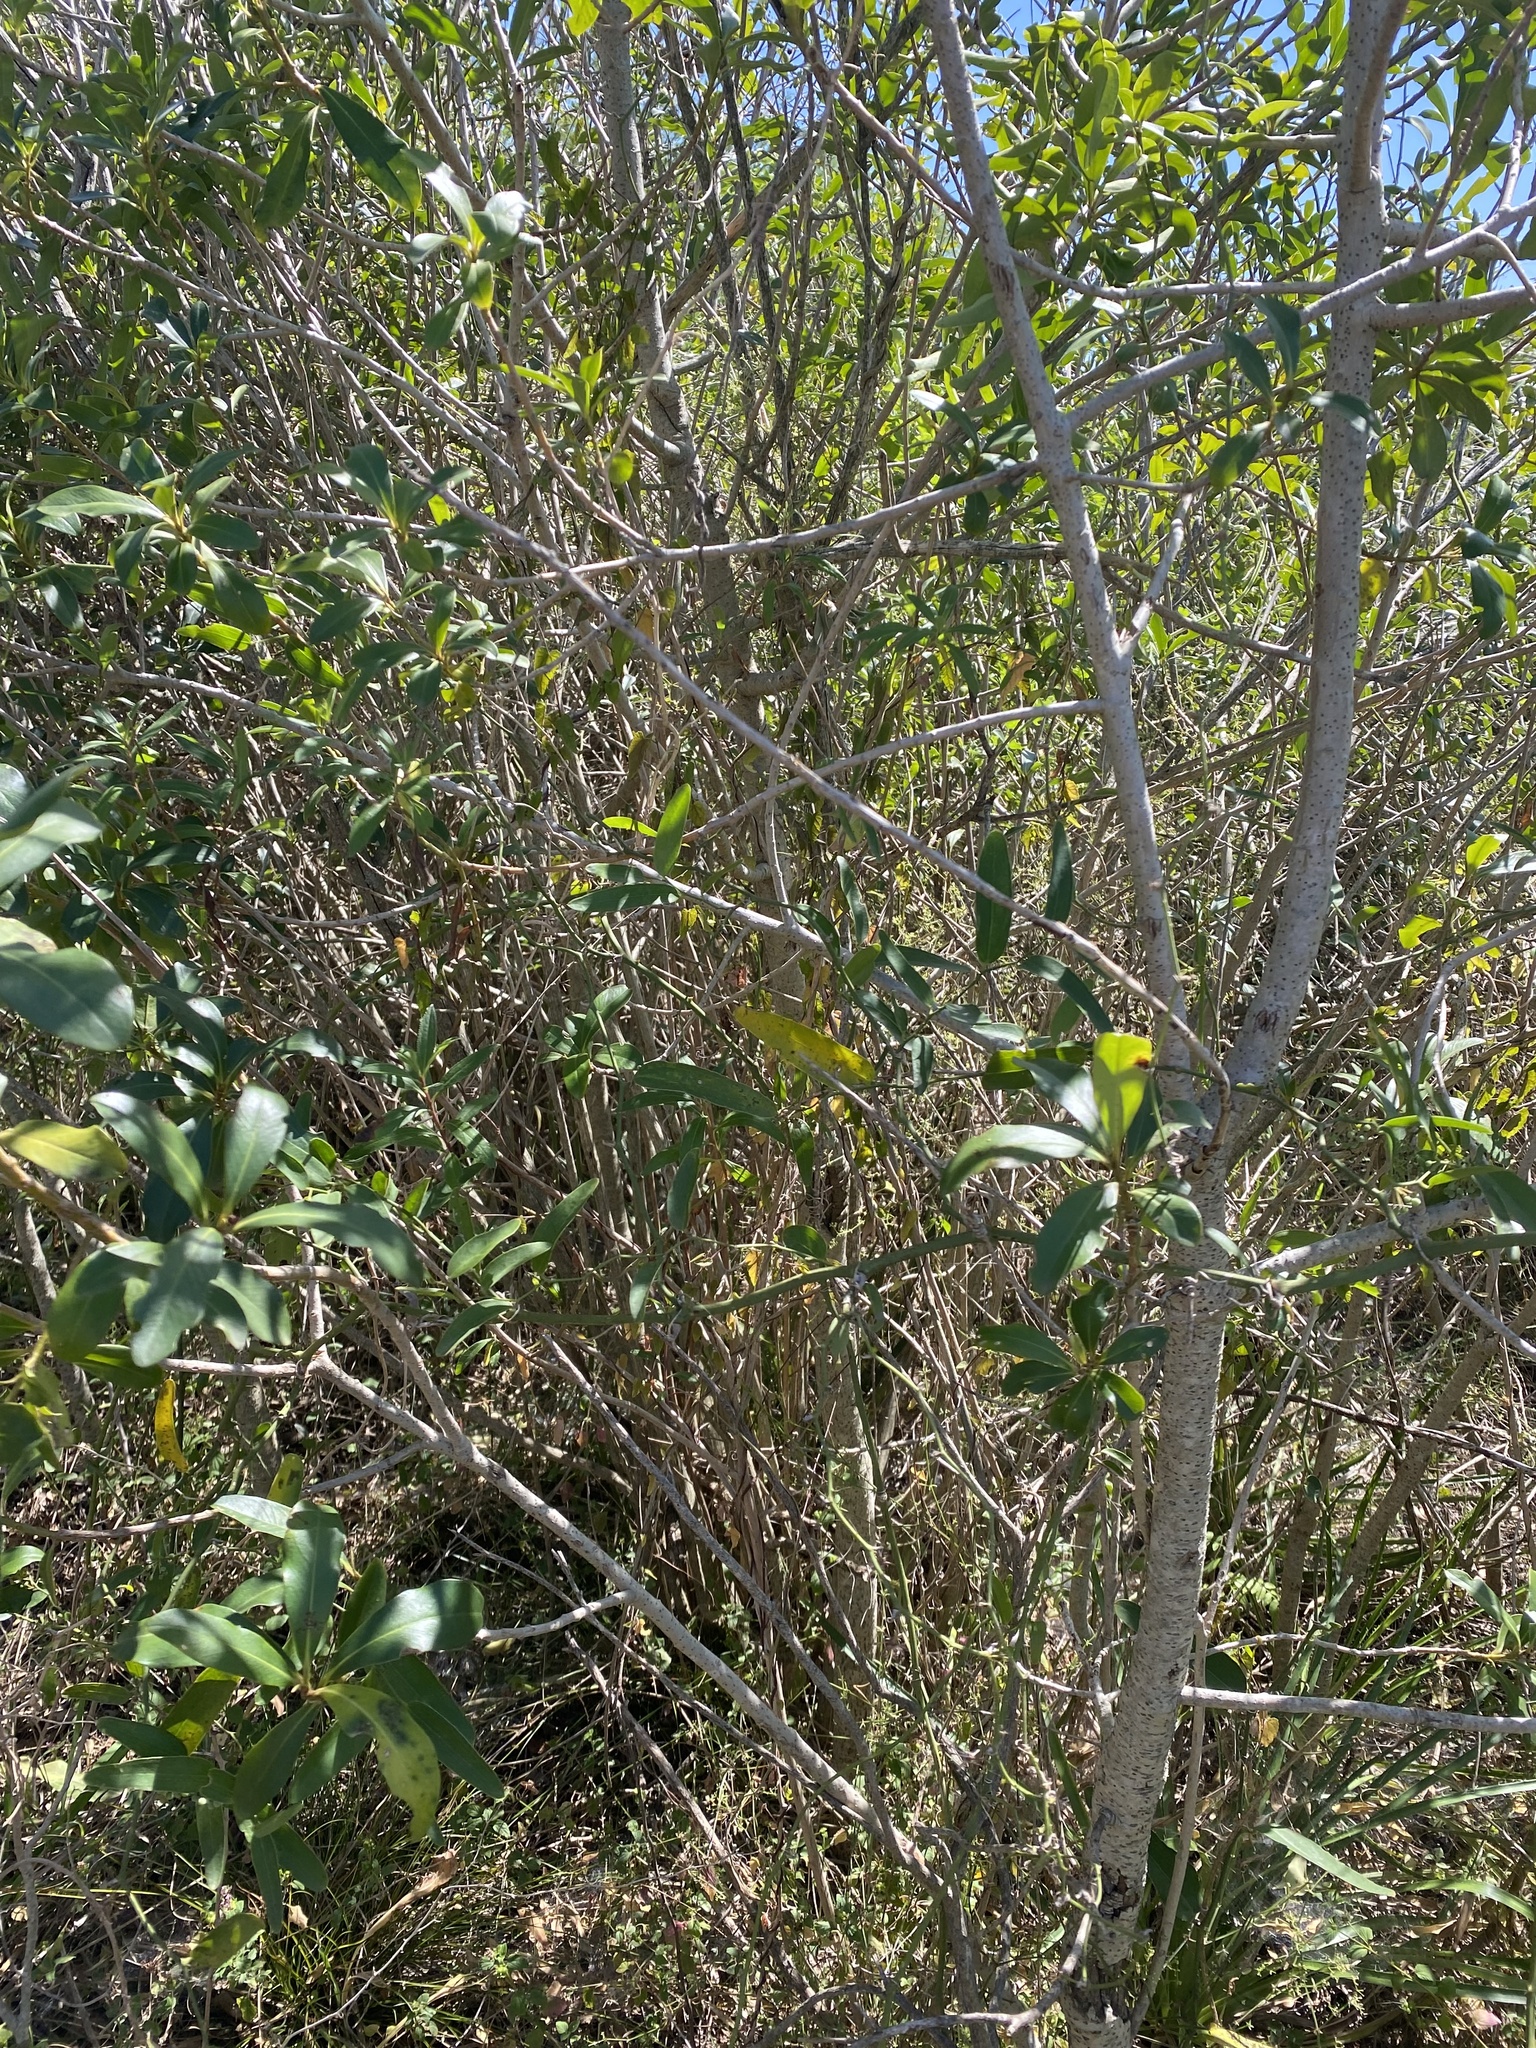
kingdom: Plantae
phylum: Tracheophyta
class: Magnoliopsida
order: Ericales
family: Primulaceae
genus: Myrsine
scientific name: Myrsine laetevirens
